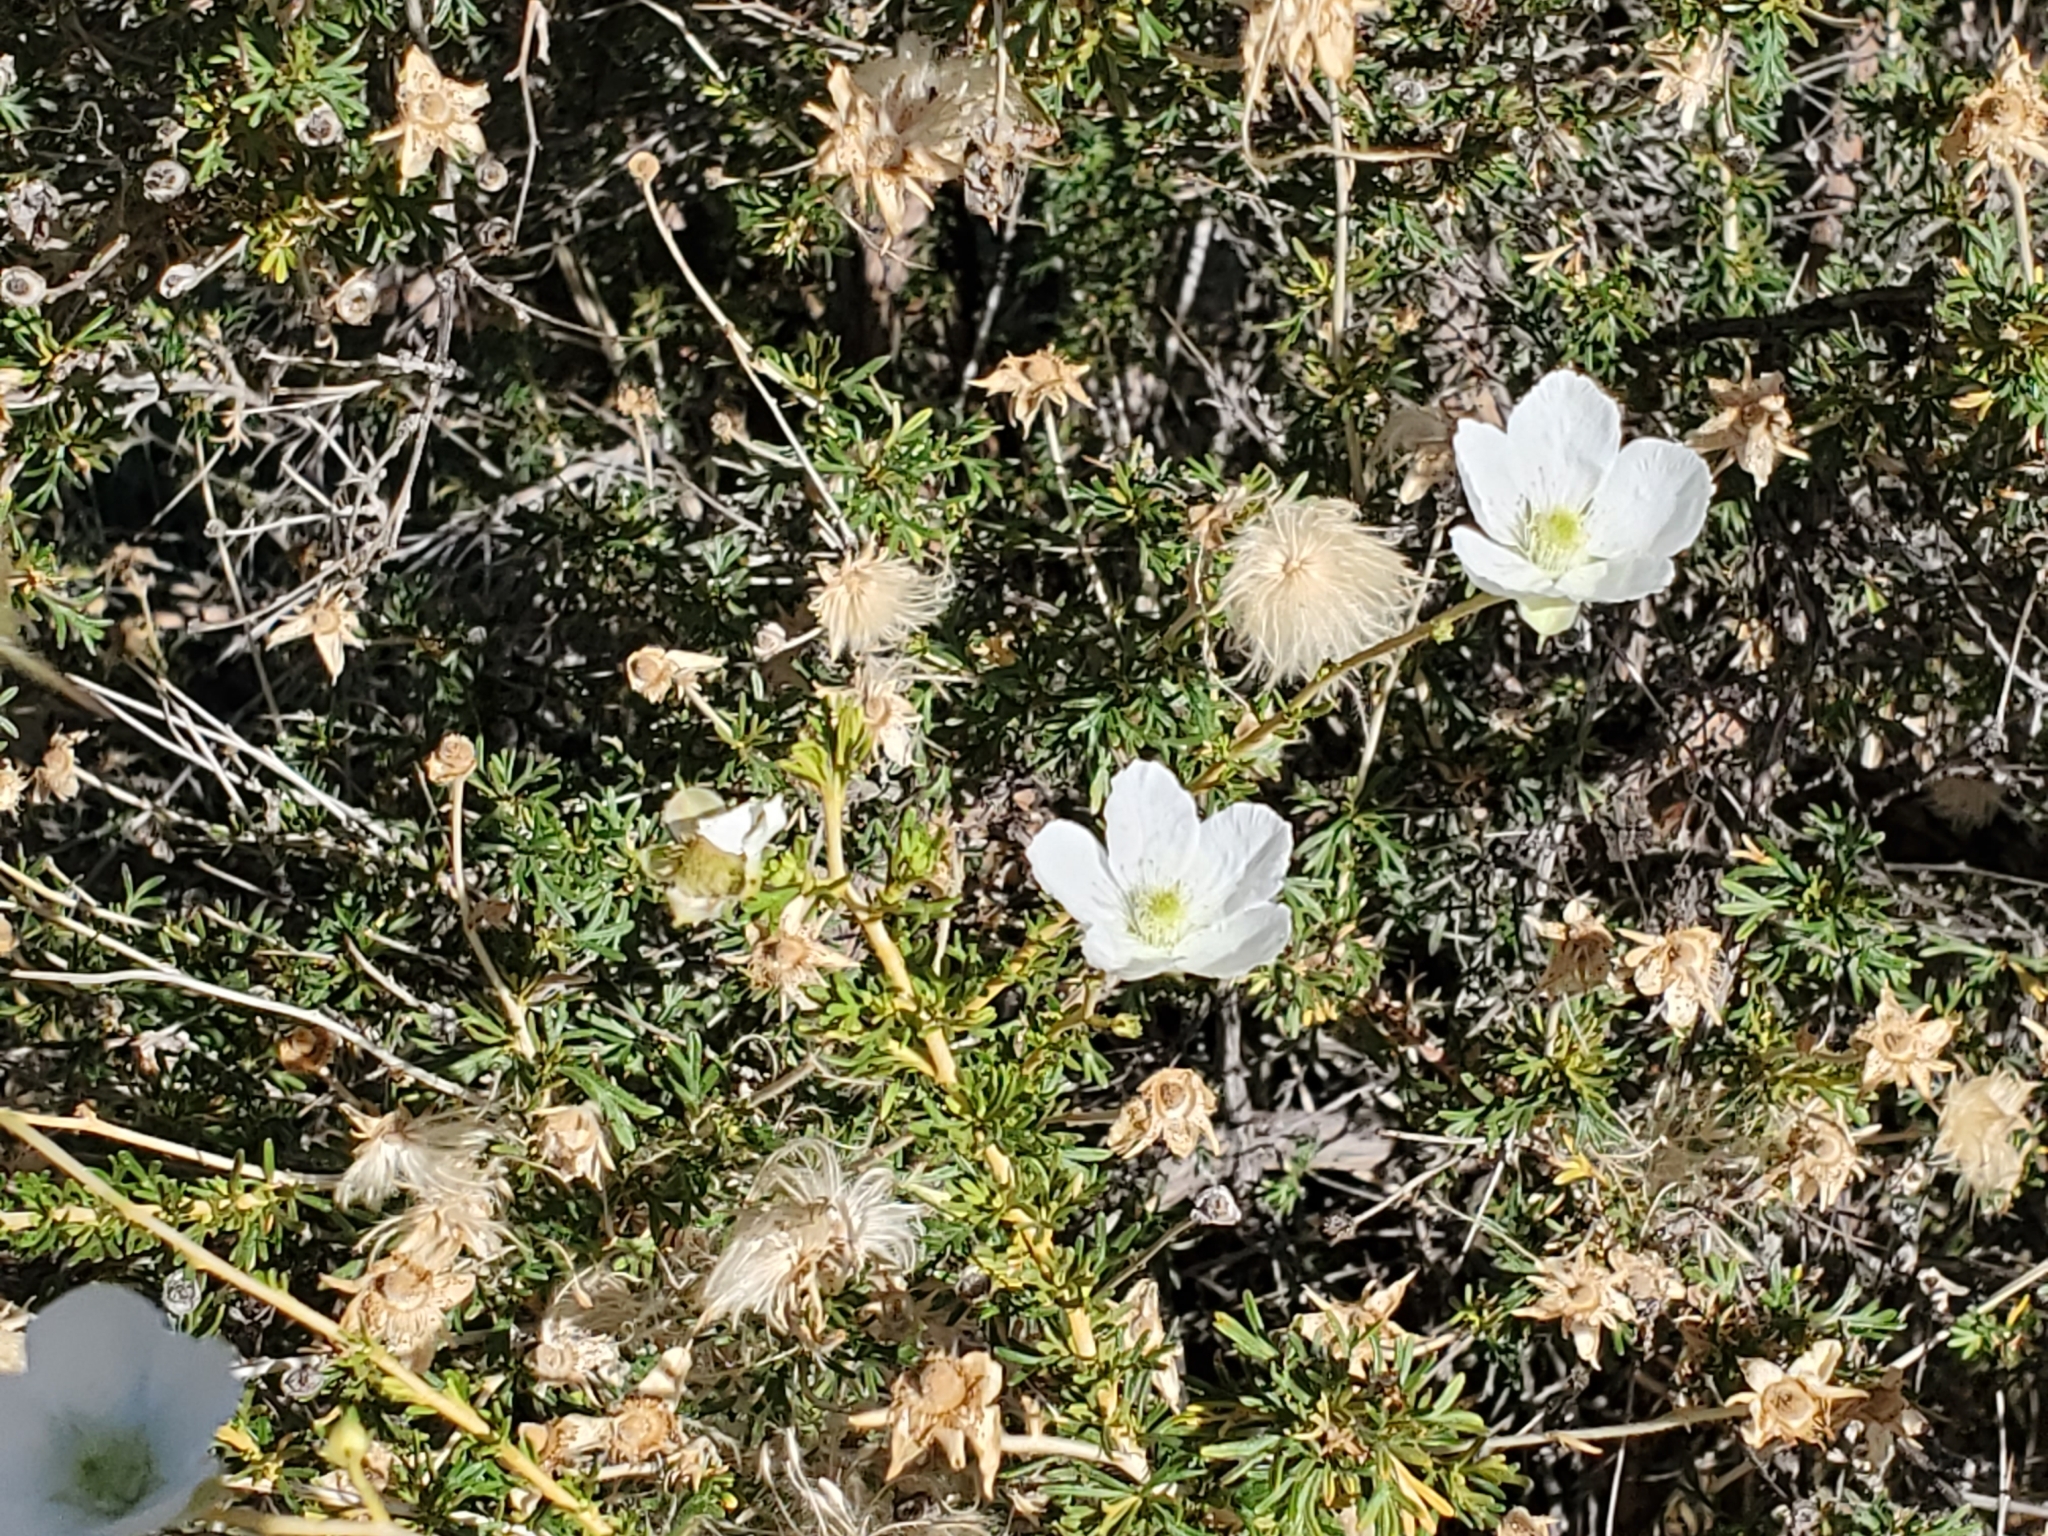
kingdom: Plantae
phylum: Tracheophyta
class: Magnoliopsida
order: Rosales
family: Rosaceae
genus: Fallugia
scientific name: Fallugia paradoxa
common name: Apache-plume
